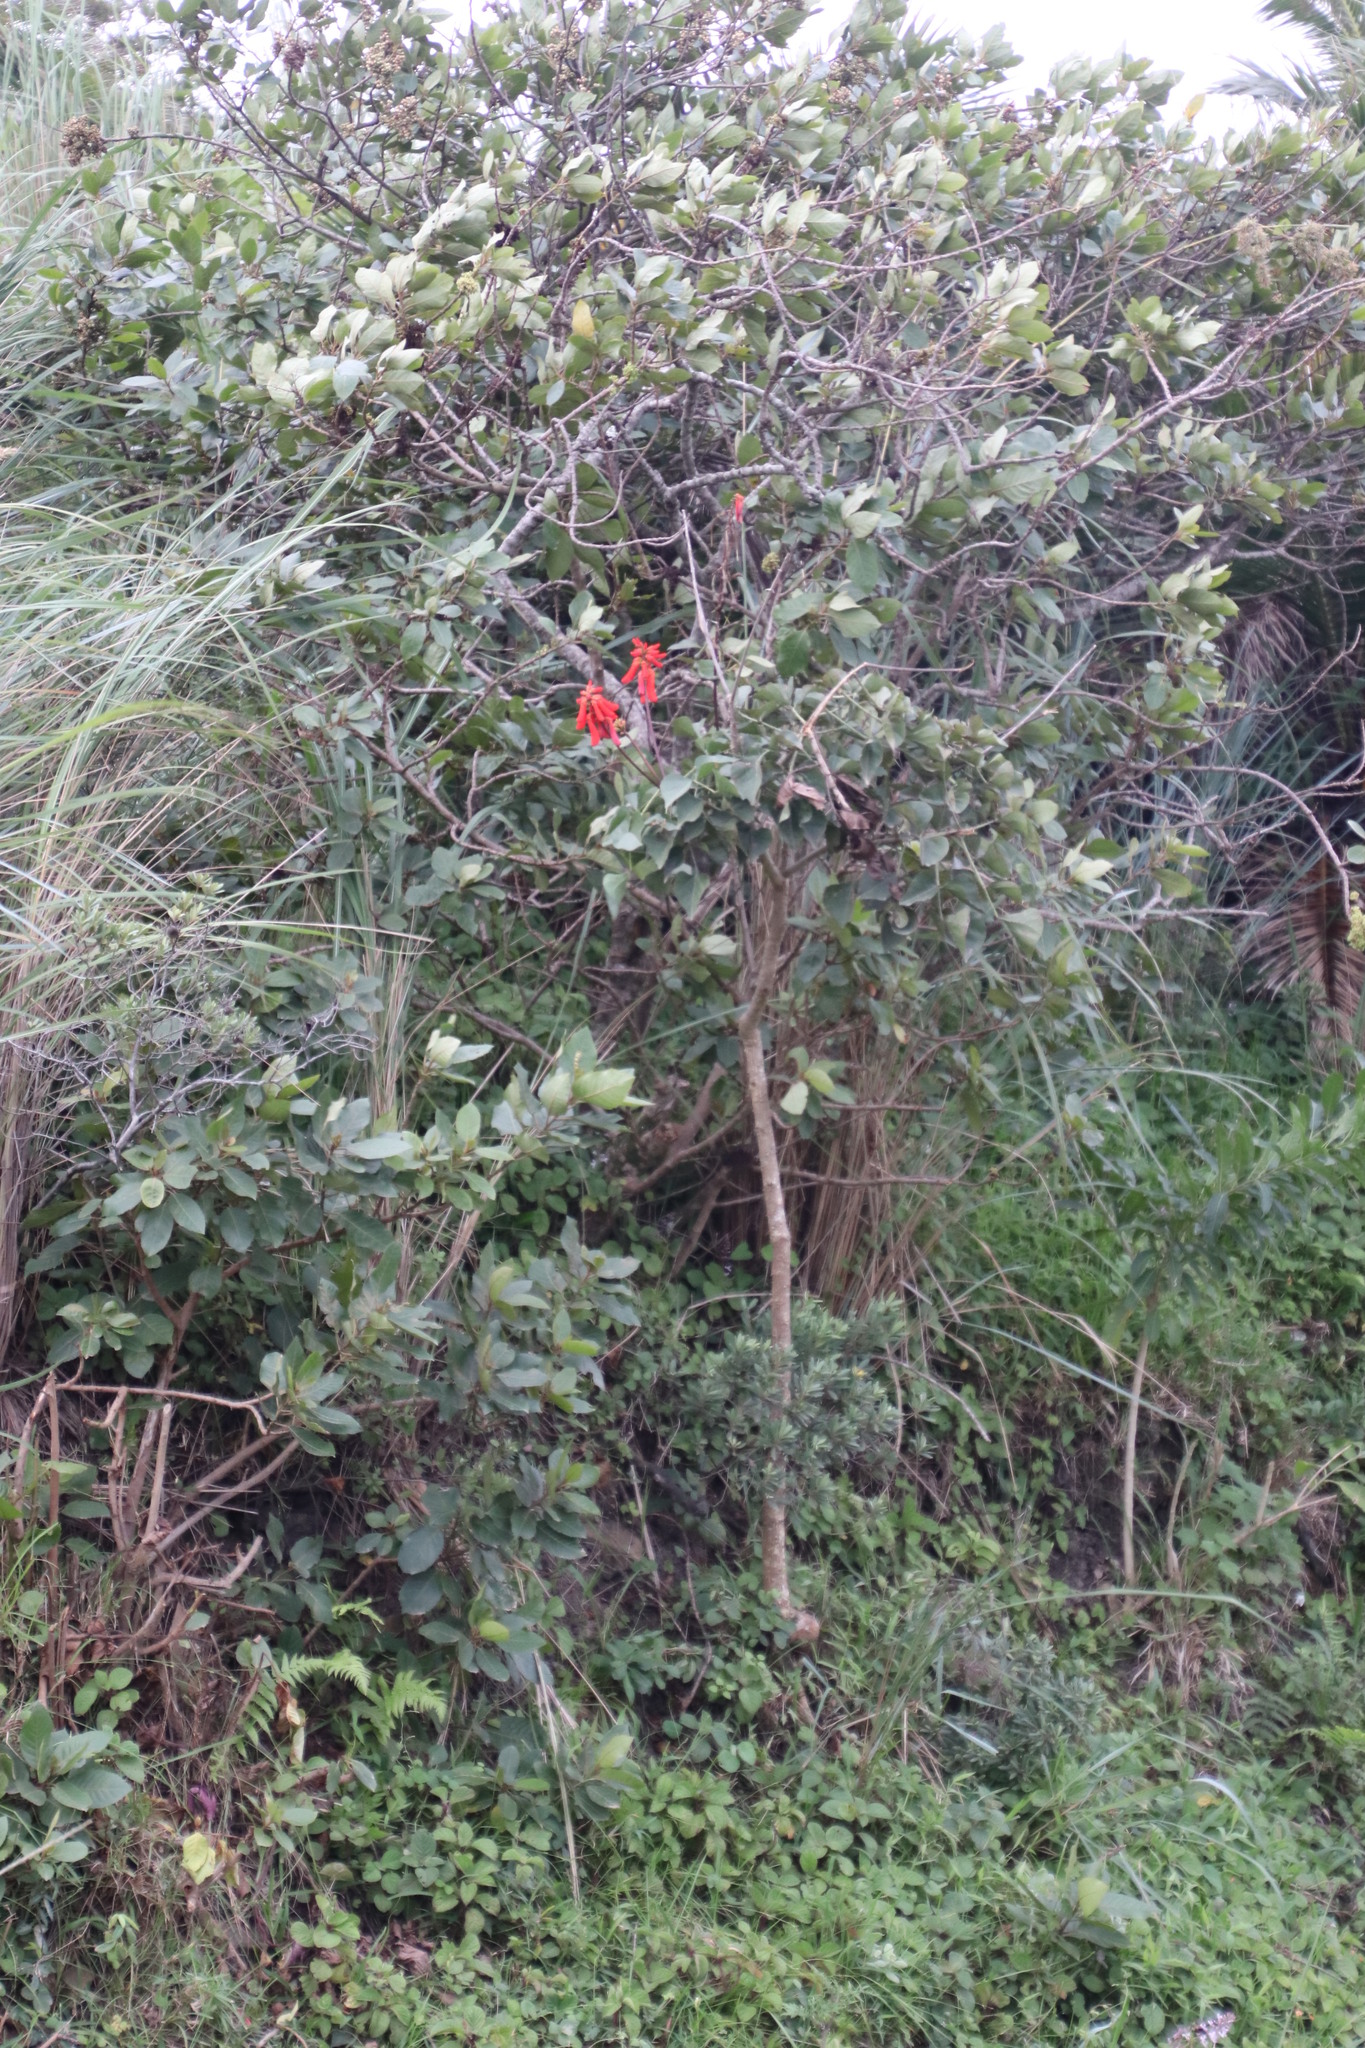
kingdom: Plantae
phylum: Tracheophyta
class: Magnoliopsida
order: Fabales
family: Fabaceae
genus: Erythrina
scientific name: Erythrina humeana
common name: Dwarf coral tree
